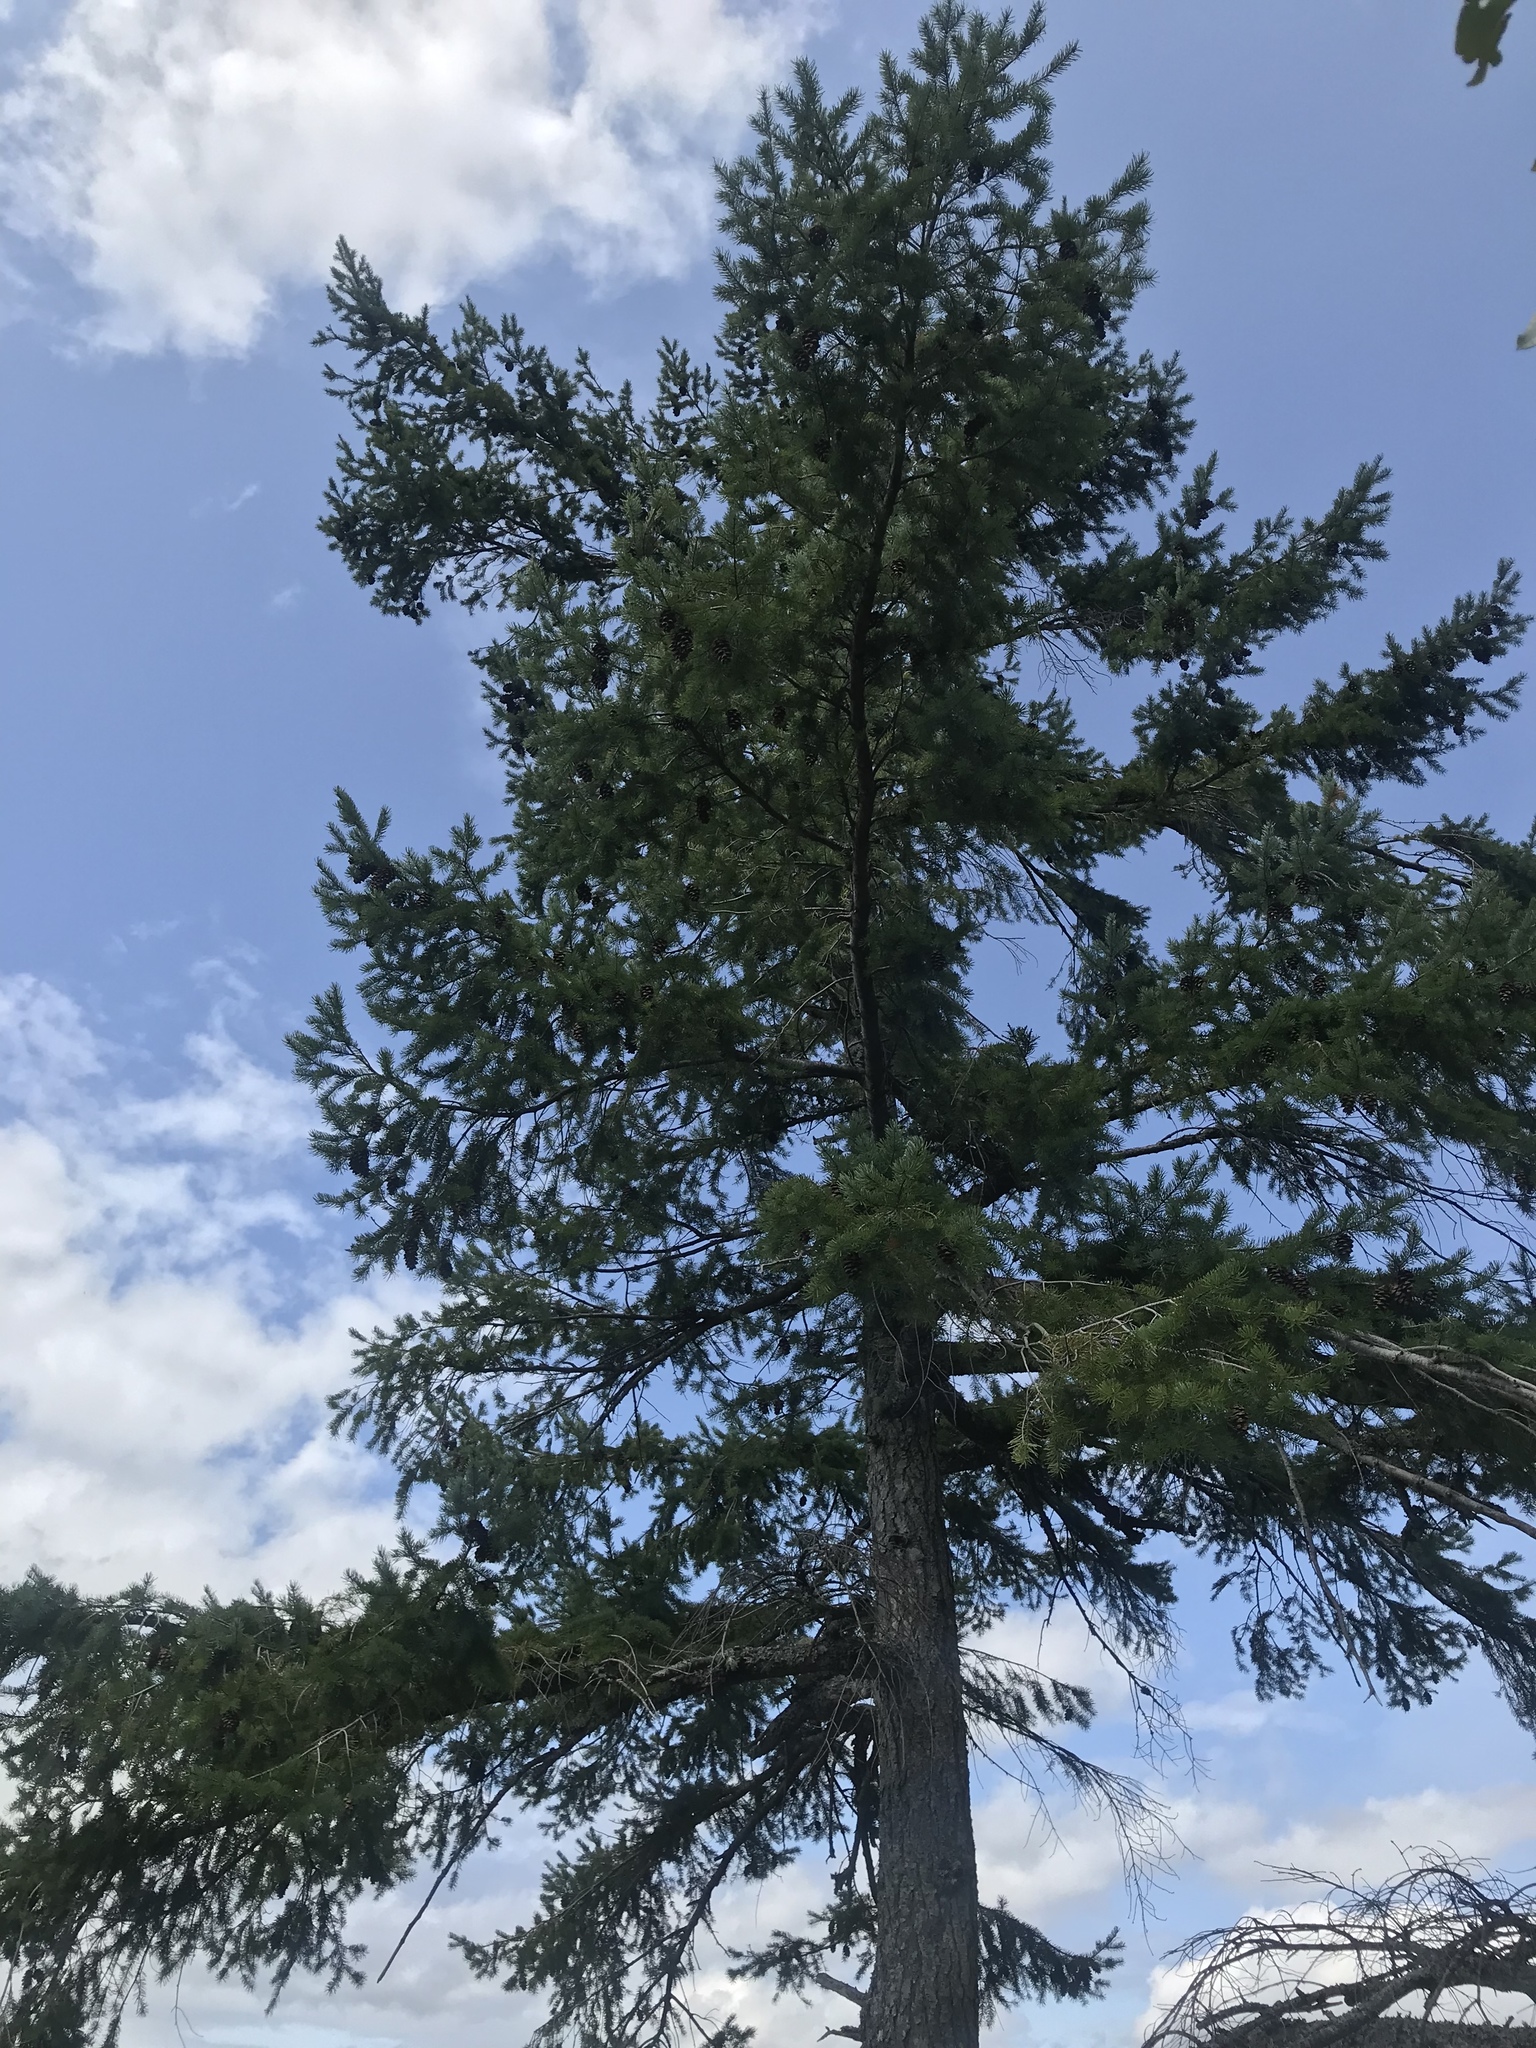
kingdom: Plantae
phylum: Tracheophyta
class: Pinopsida
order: Pinales
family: Pinaceae
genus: Pseudotsuga
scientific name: Pseudotsuga menziesii
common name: Douglas fir
